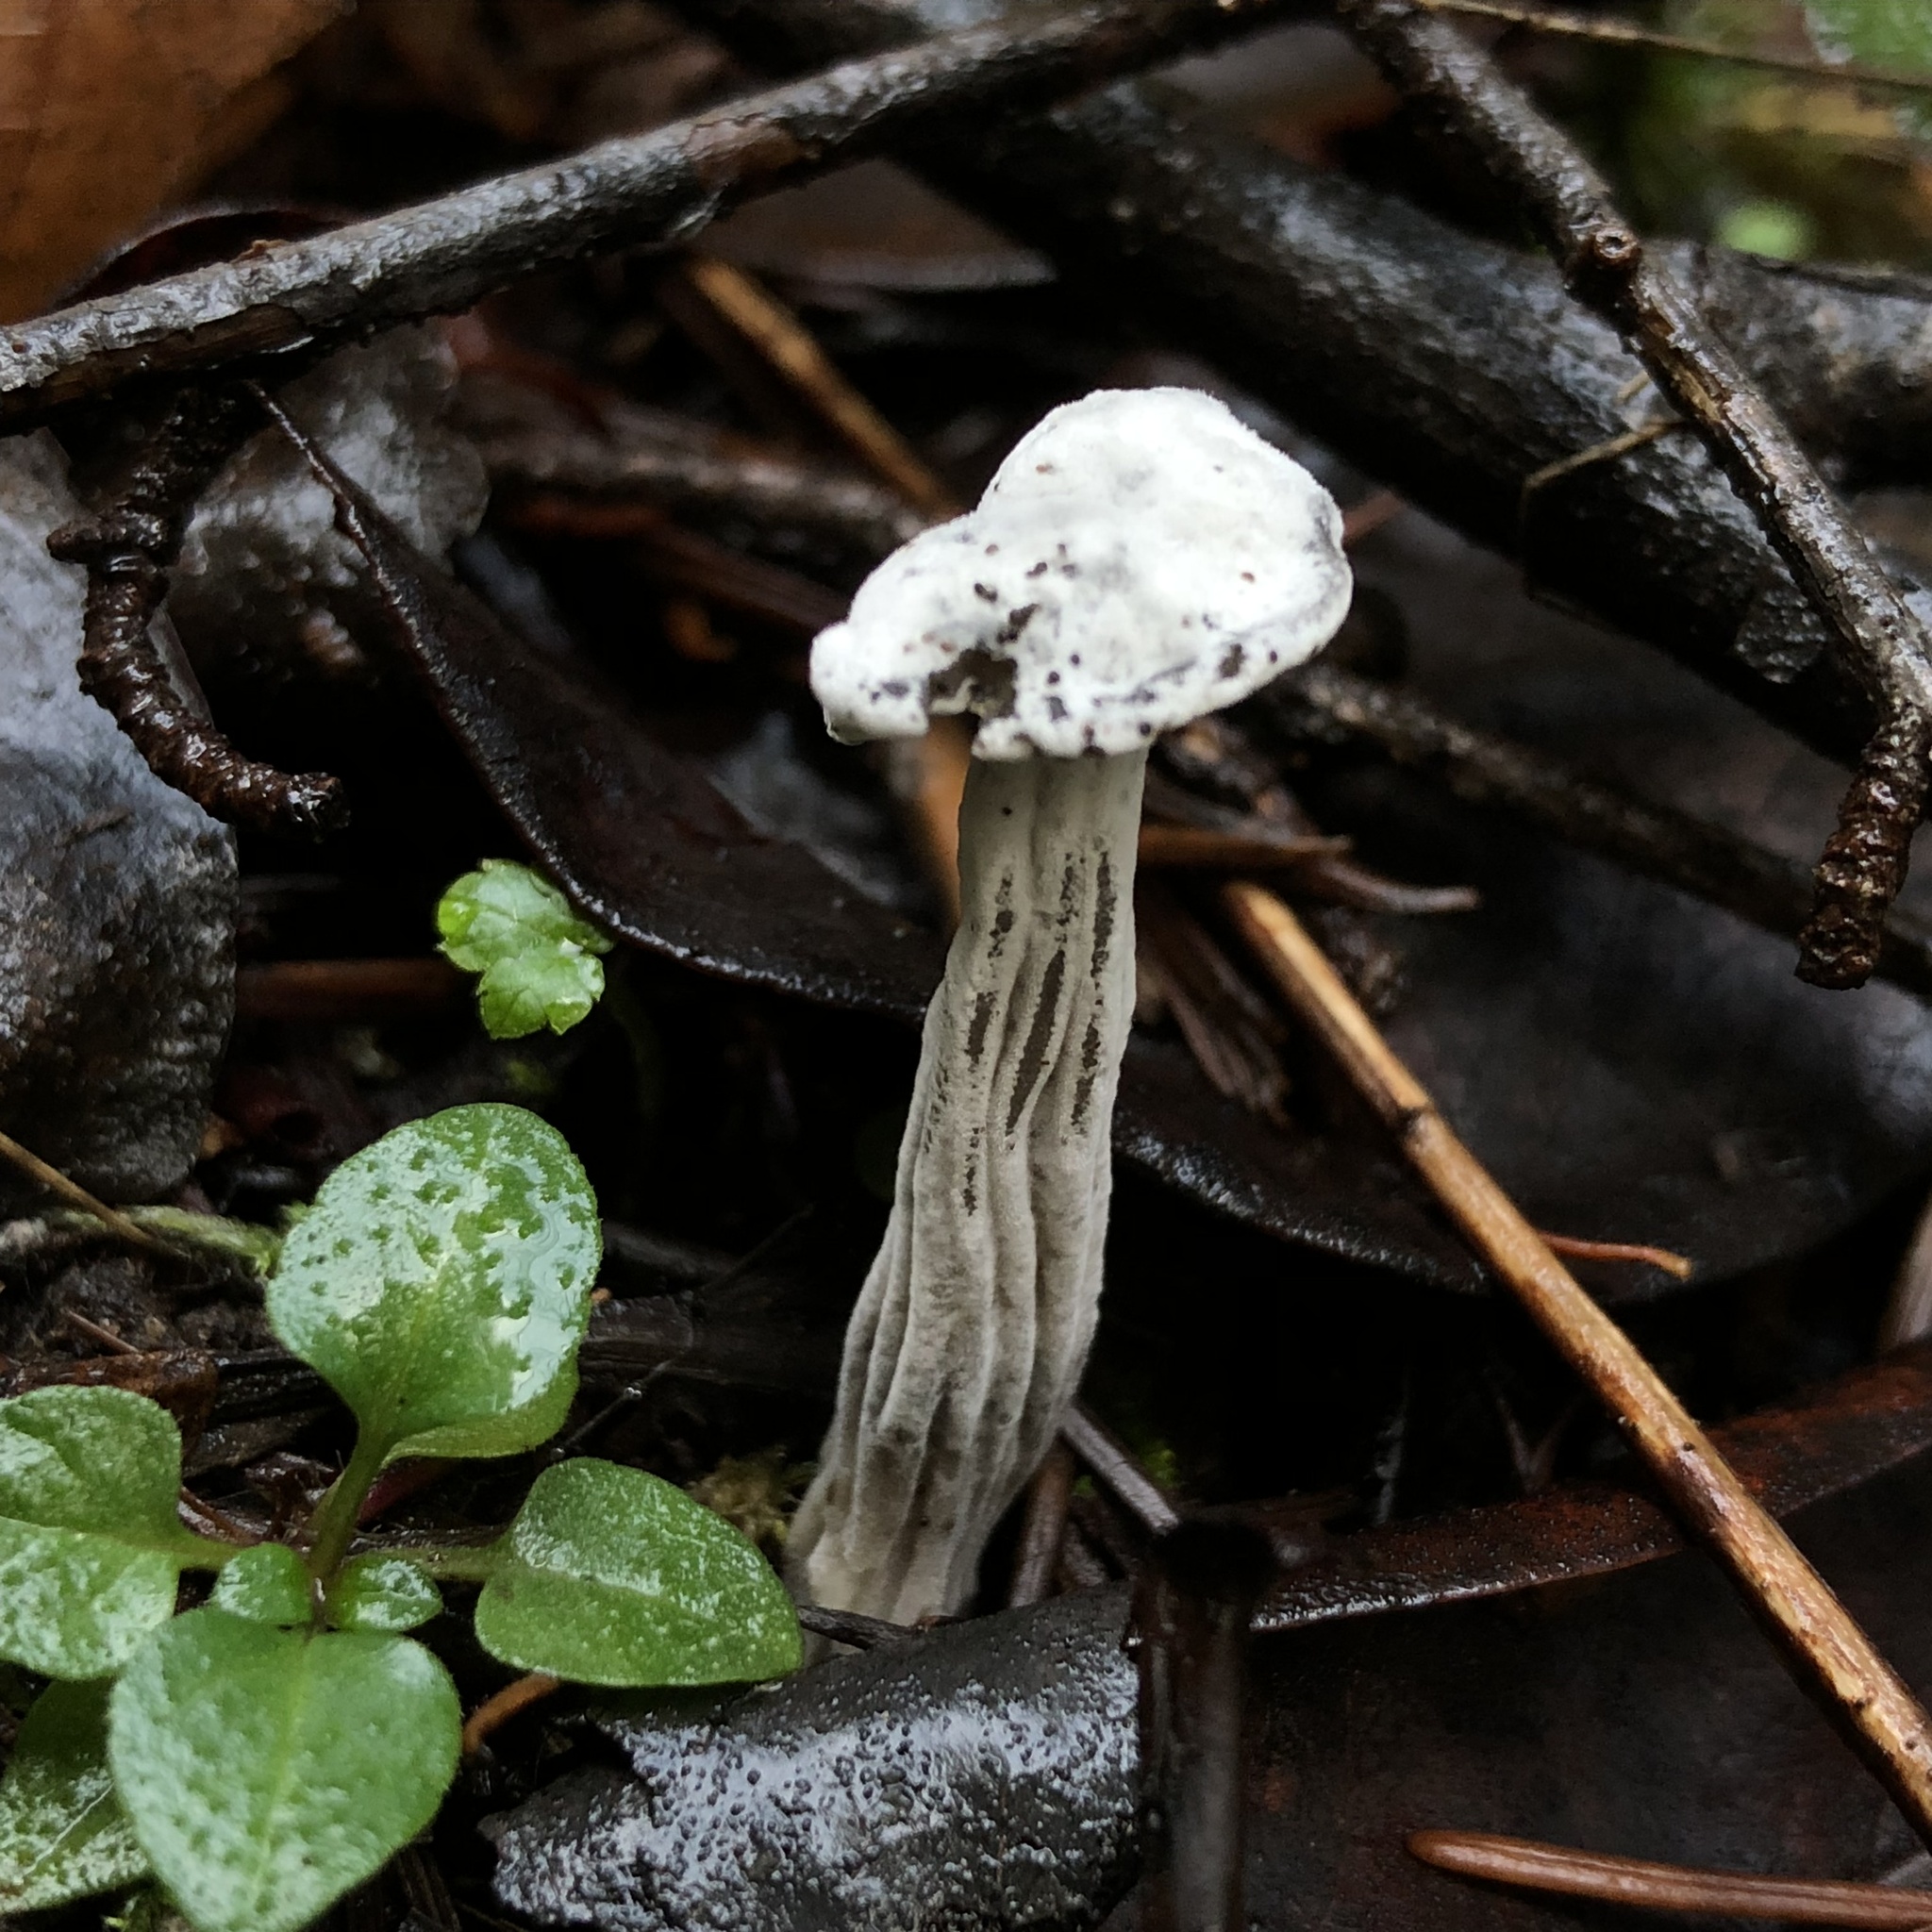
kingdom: Fungi
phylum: Ascomycota
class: Sordariomycetes
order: Hypocreales
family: Hypocreaceae
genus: Hypomyces
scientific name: Hypomyces cervinus
